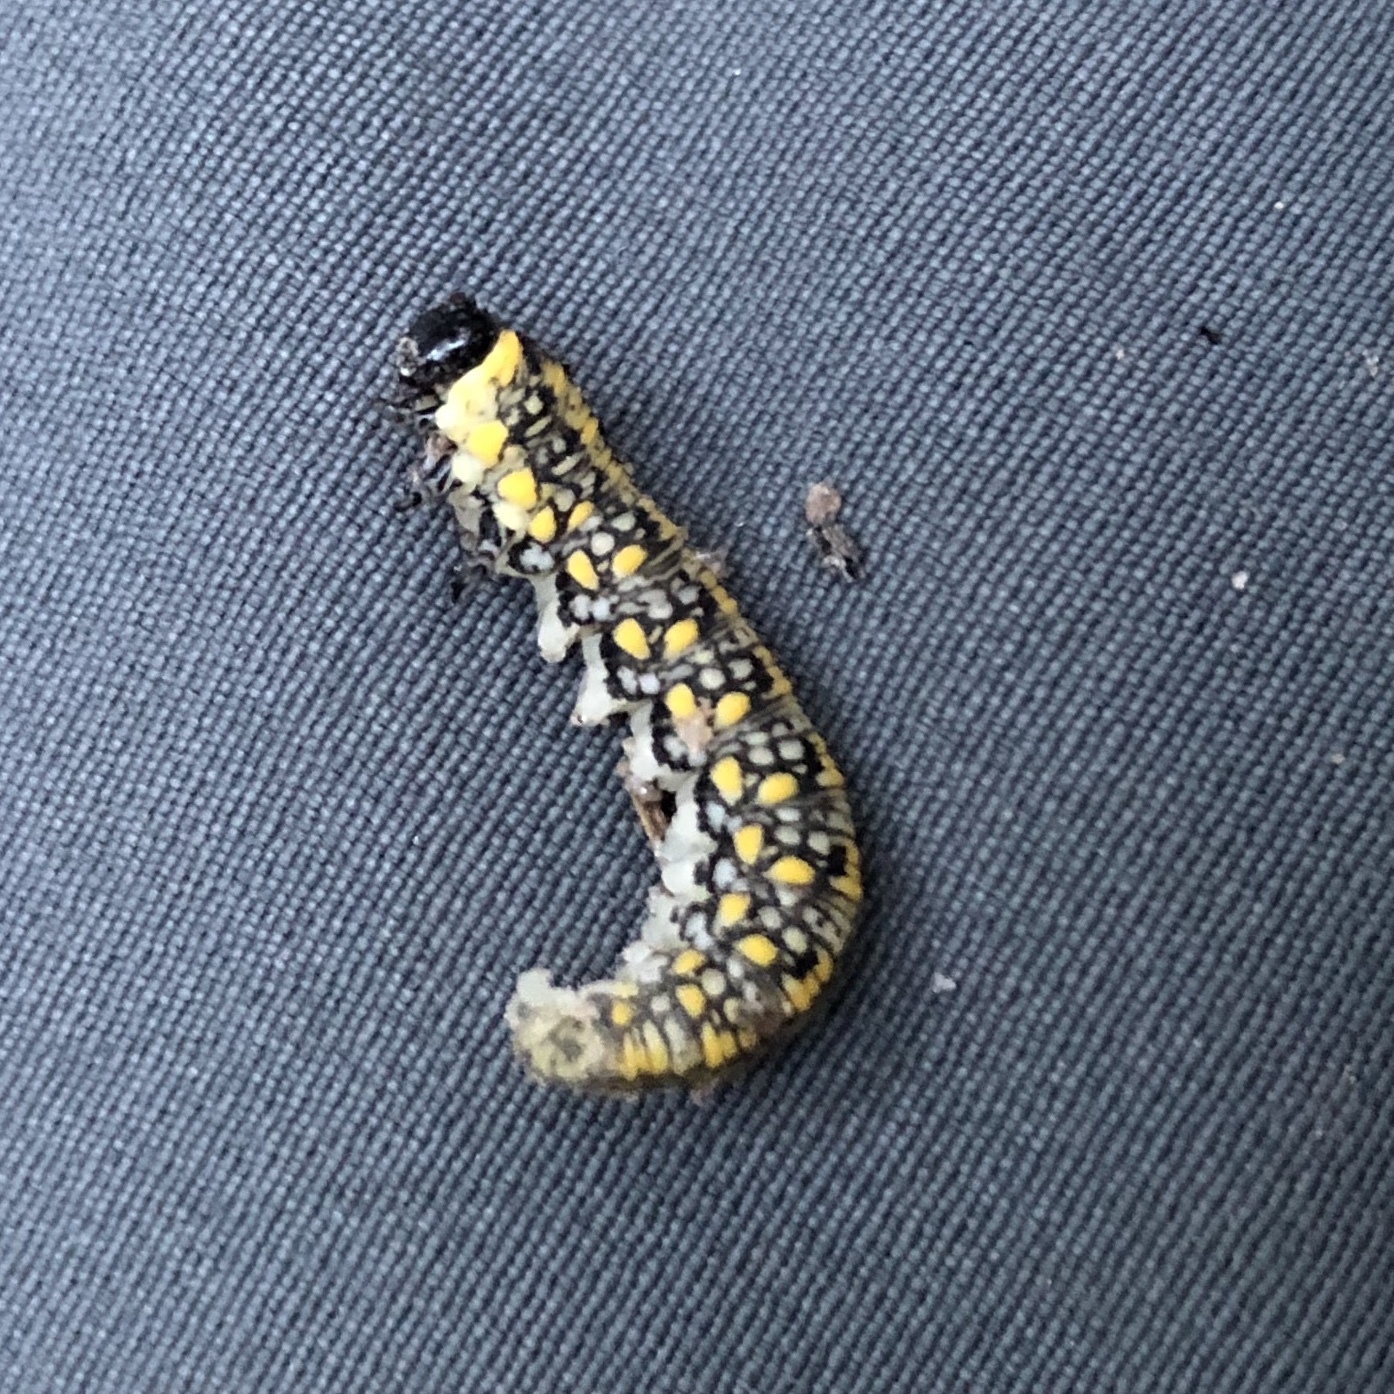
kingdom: Animalia
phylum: Arthropoda
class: Insecta
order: Hymenoptera
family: Diprionidae
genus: Diprion
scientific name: Diprion similis
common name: Pine sawfly
